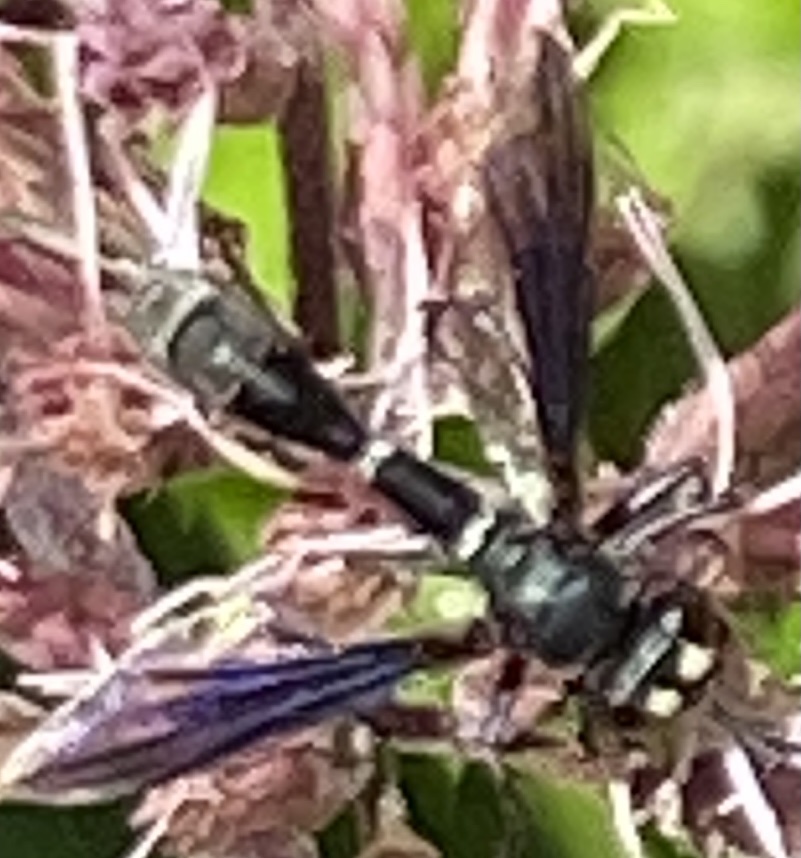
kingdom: Animalia
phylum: Arthropoda
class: Insecta
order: Diptera
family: Conopidae
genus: Physocephala
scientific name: Physocephala tibialis
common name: Common eastern physocephala
